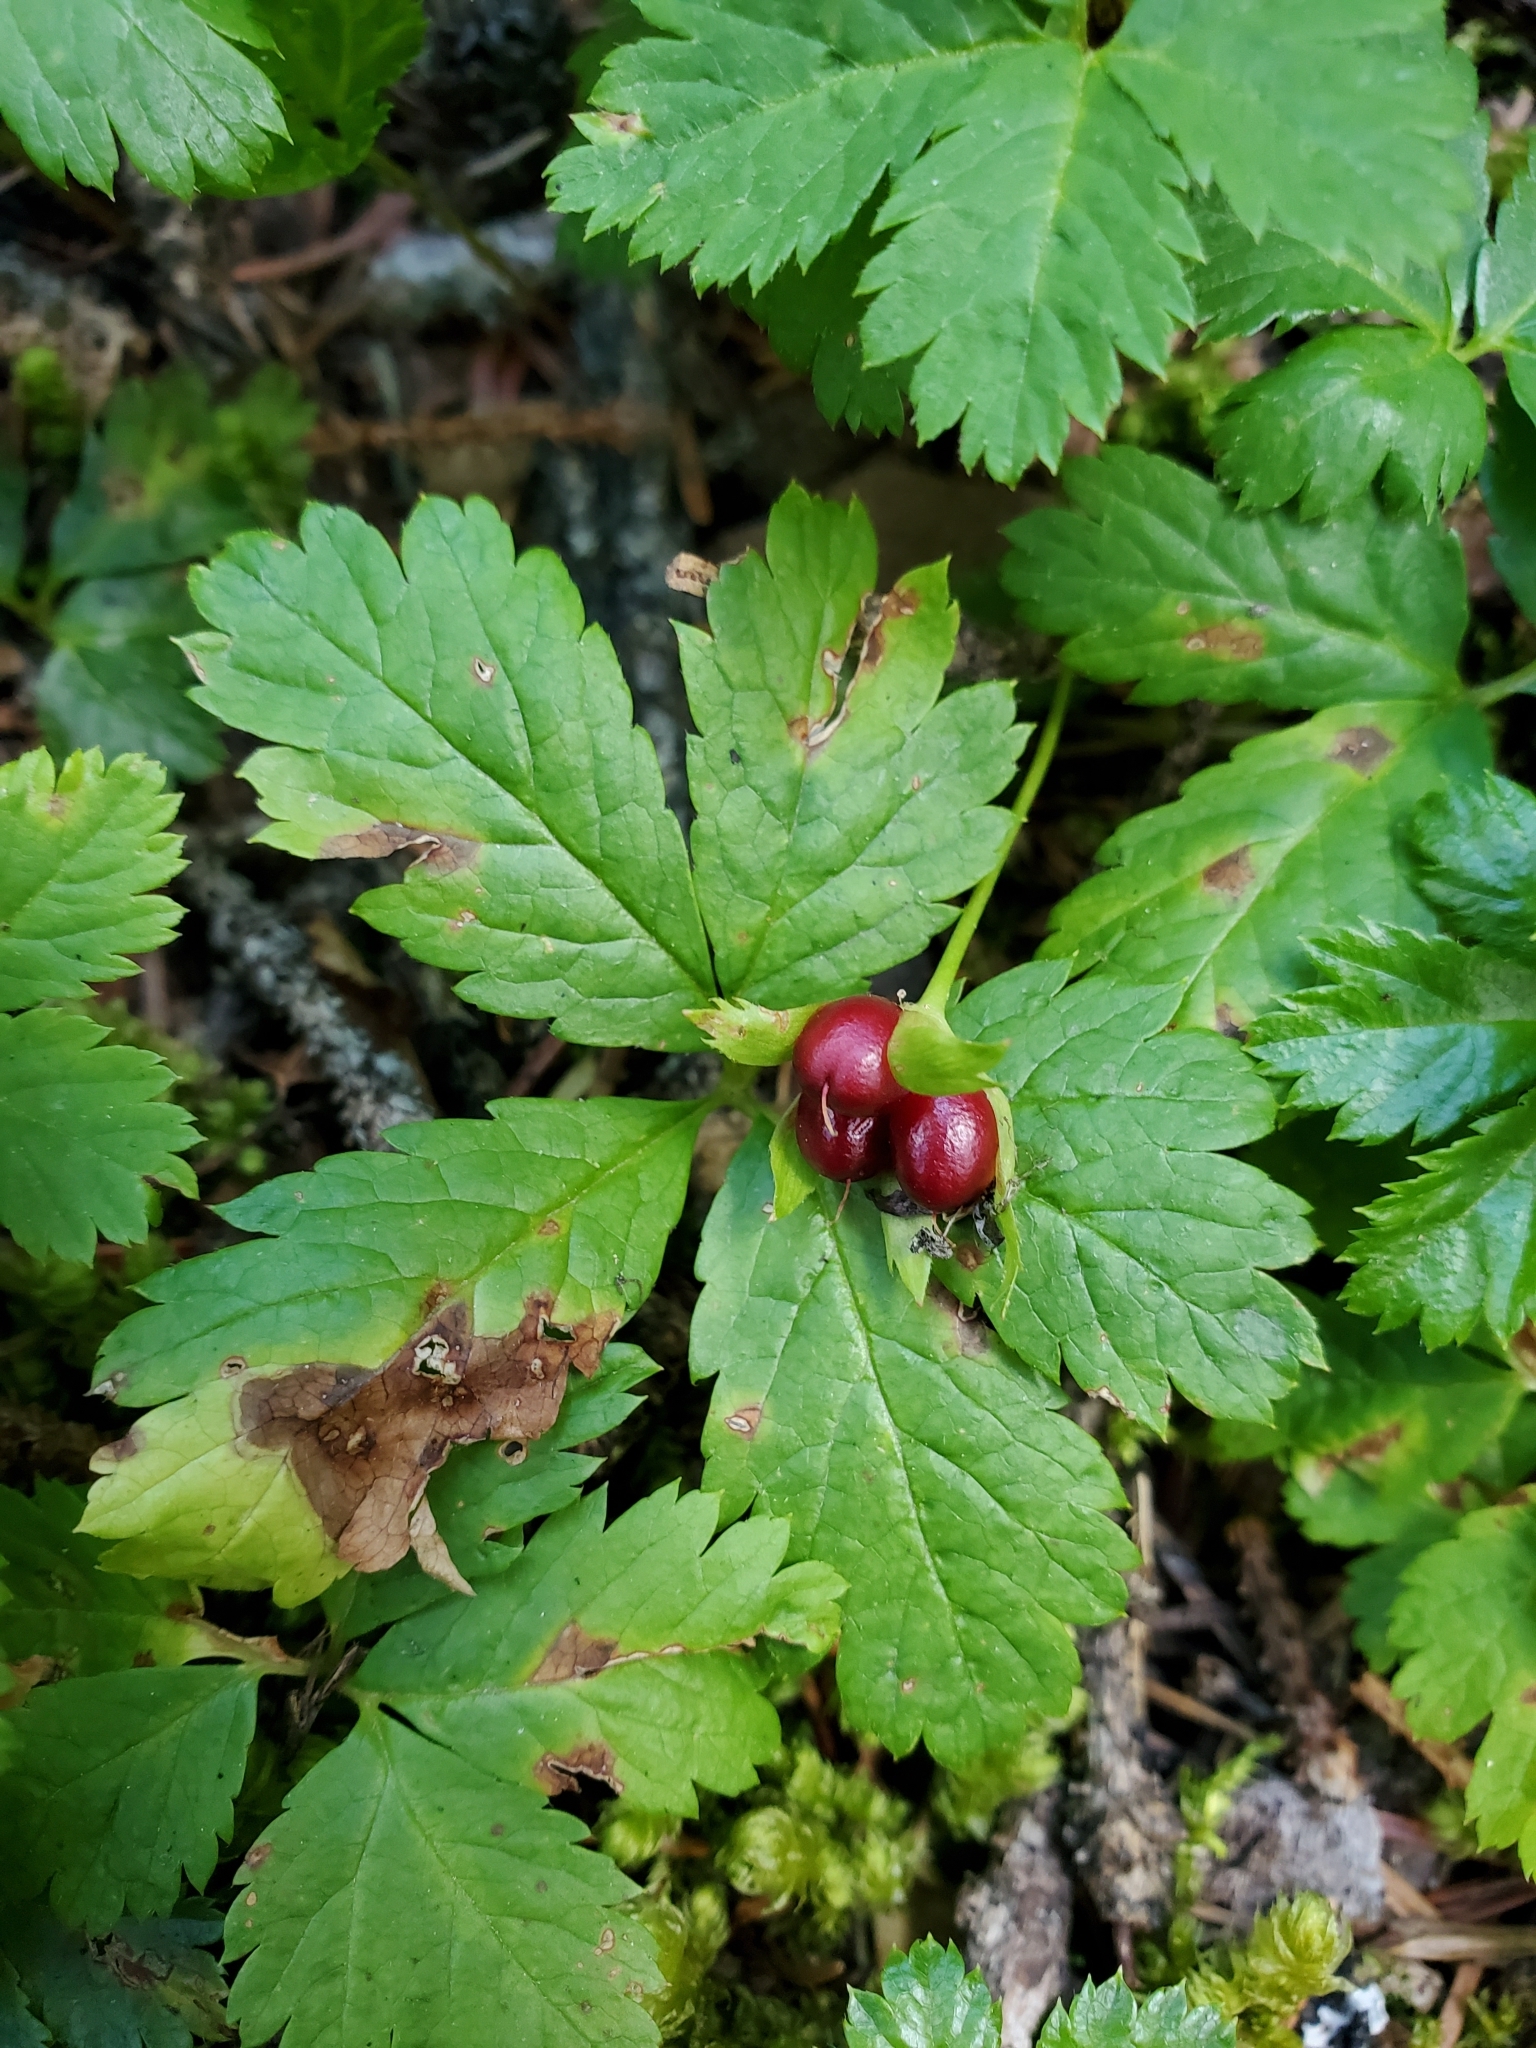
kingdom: Plantae
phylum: Tracheophyta
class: Magnoliopsida
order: Rosales
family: Rosaceae
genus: Rubus
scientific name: Rubus pedatus
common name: Creeping raspberry
